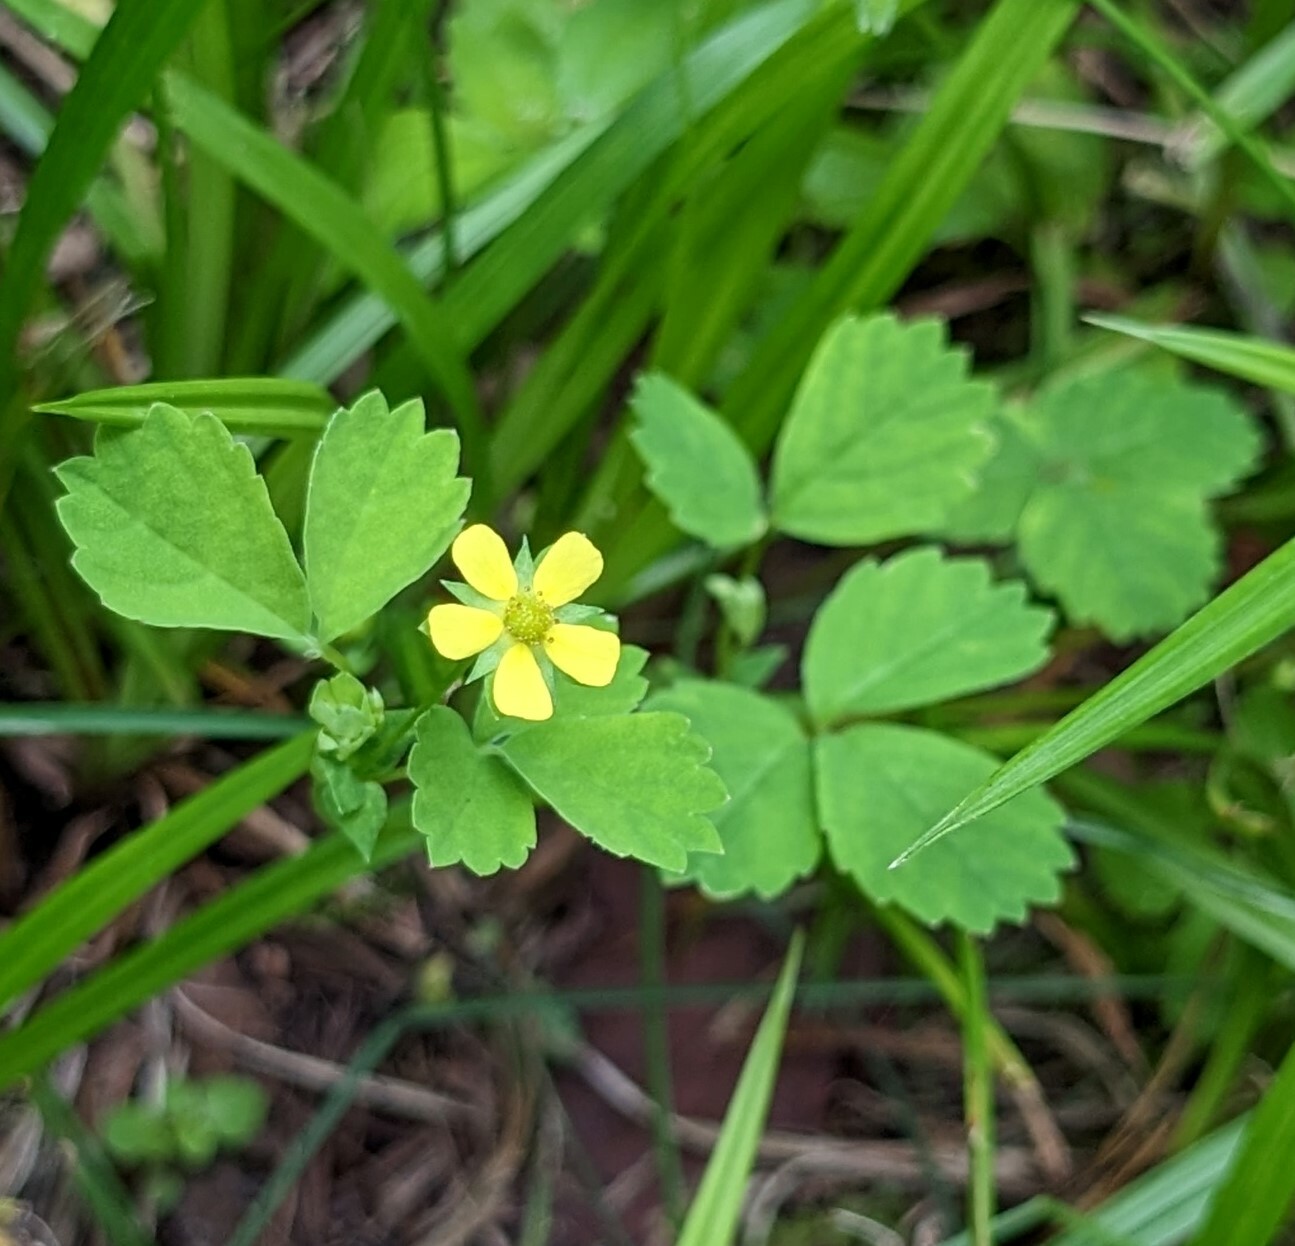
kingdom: Plantae
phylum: Tracheophyta
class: Magnoliopsida
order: Rosales
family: Rosaceae
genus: Potentilla
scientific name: Potentilla centigrana
